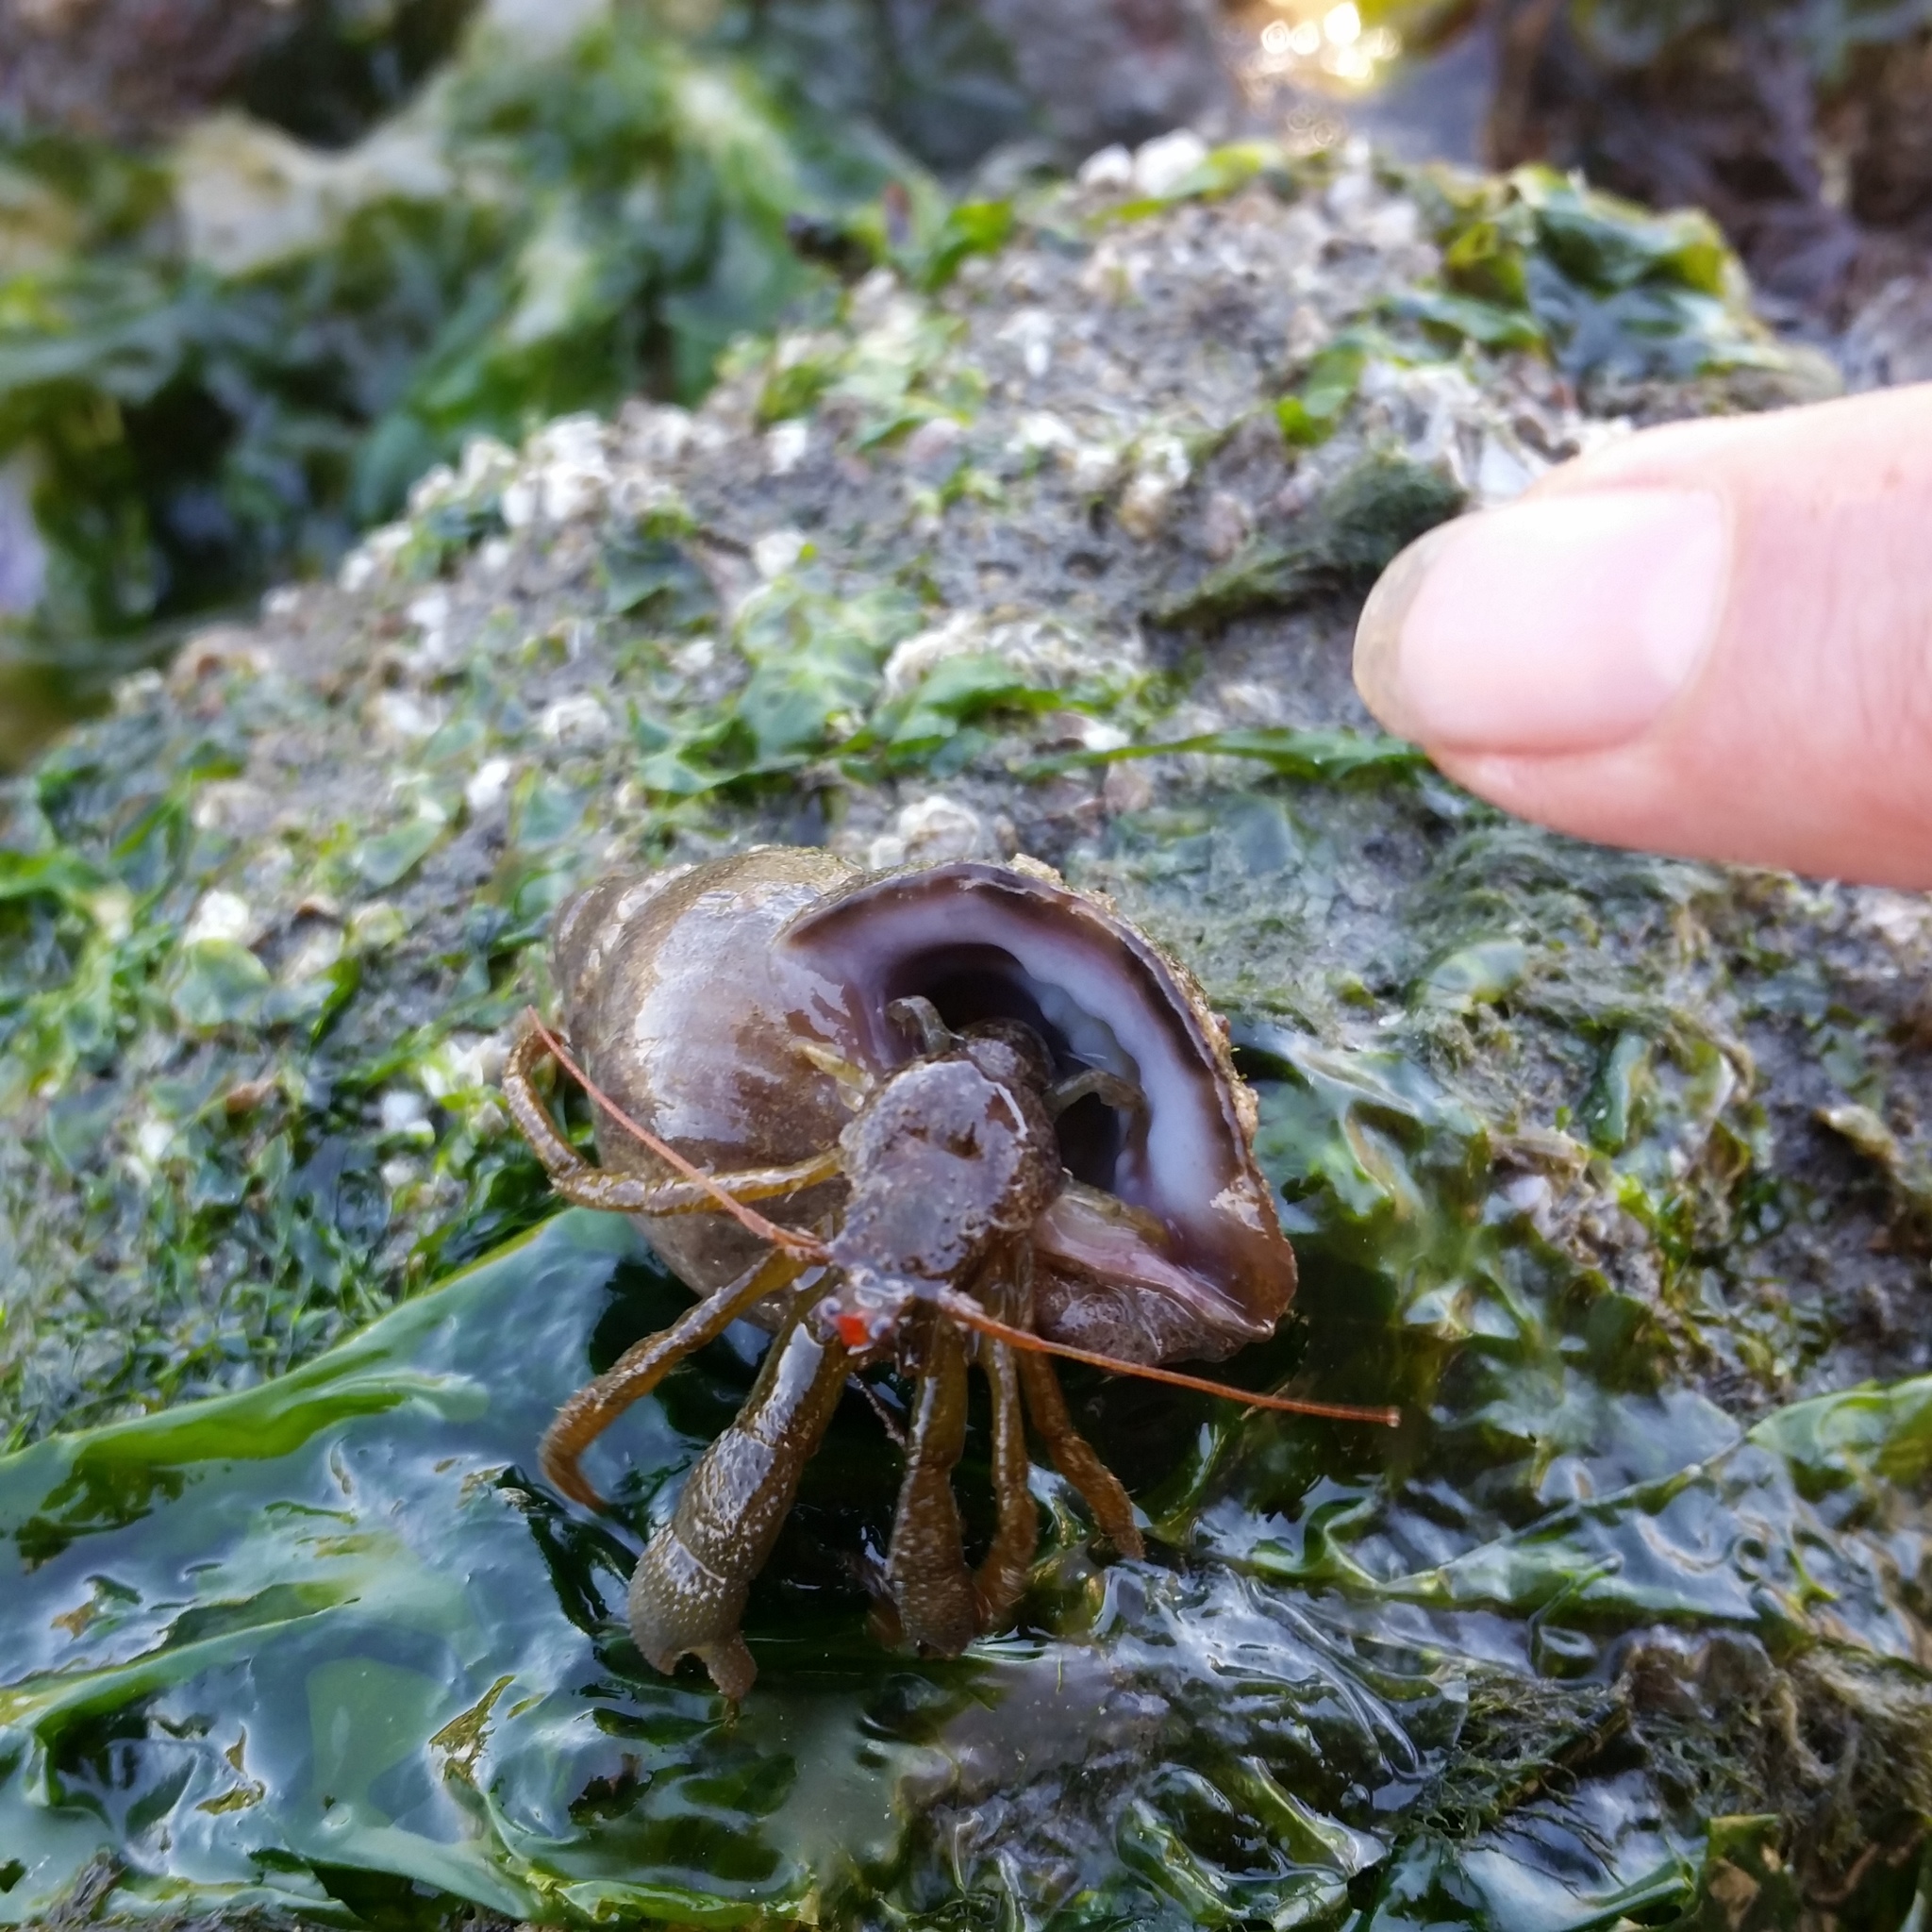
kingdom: Animalia
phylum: Arthropoda
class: Malacostraca
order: Decapoda
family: Paguridae
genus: Pagurus
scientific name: Pagurus granosimanus
